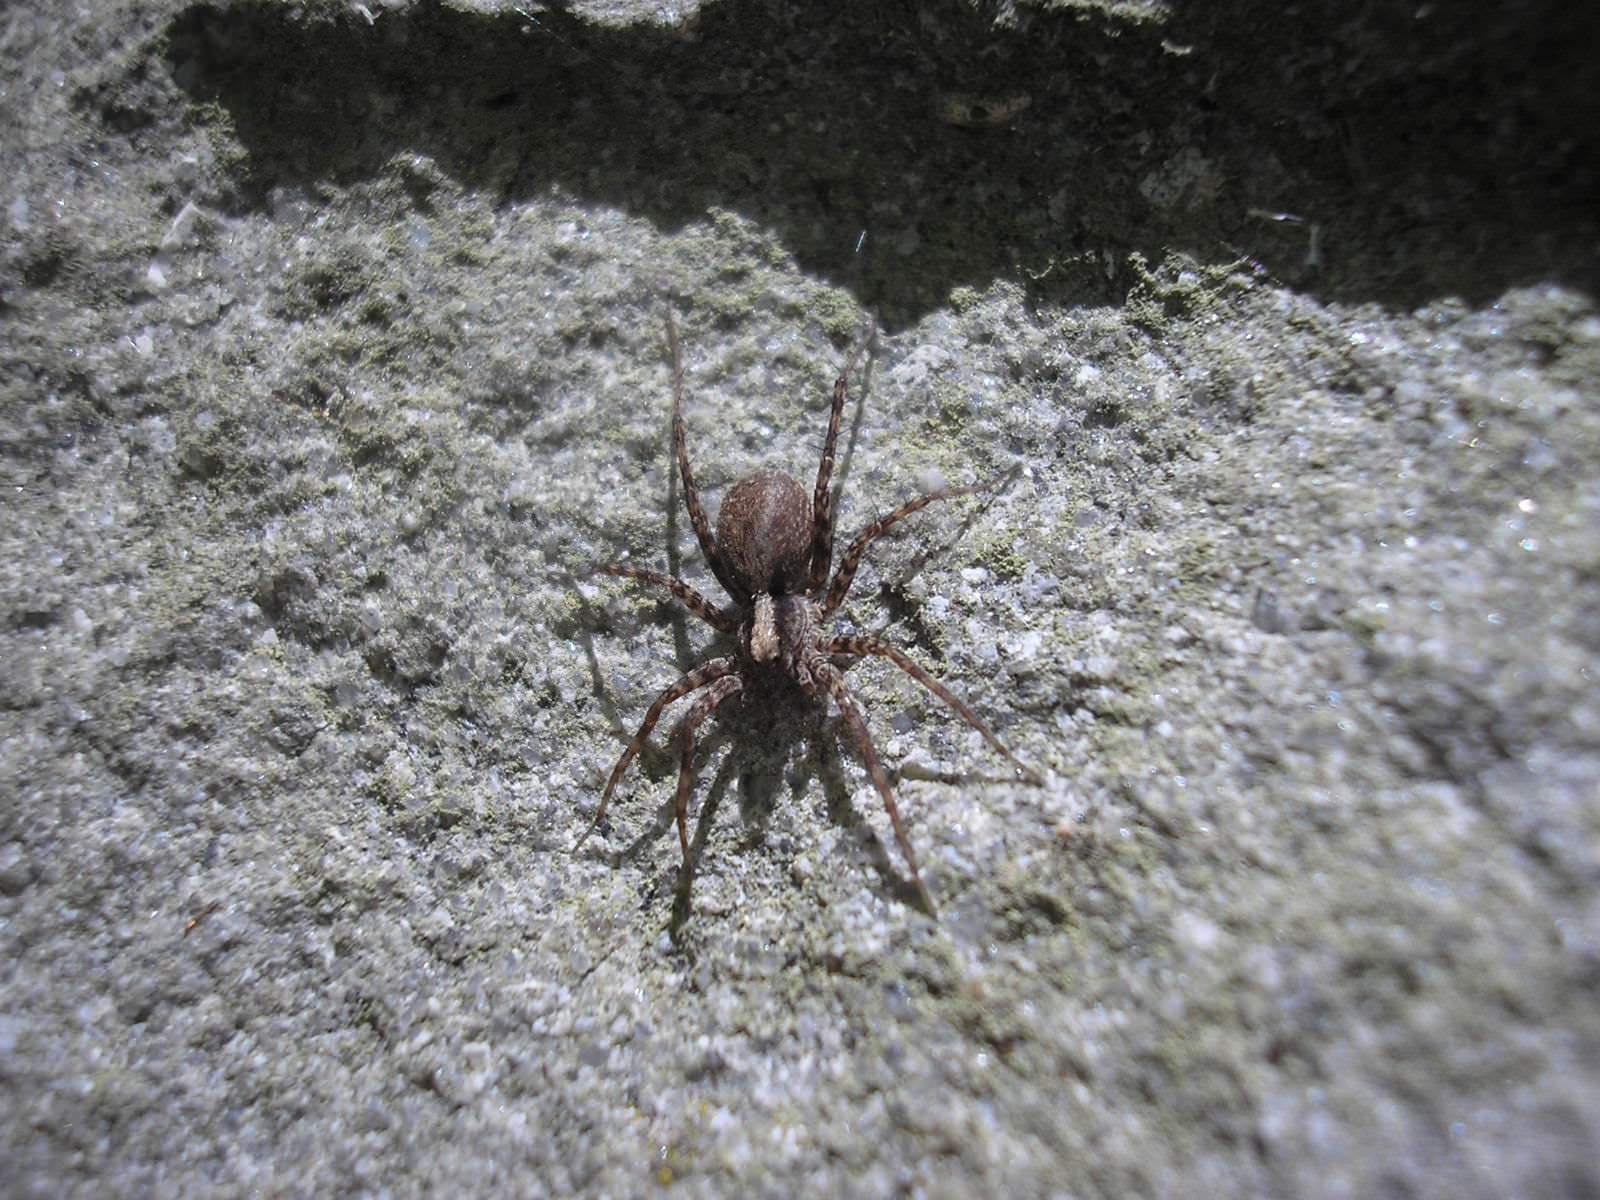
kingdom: Animalia
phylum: Arthropoda
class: Arachnida
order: Araneae
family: Lycosidae
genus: Pardosa
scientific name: Pardosa
